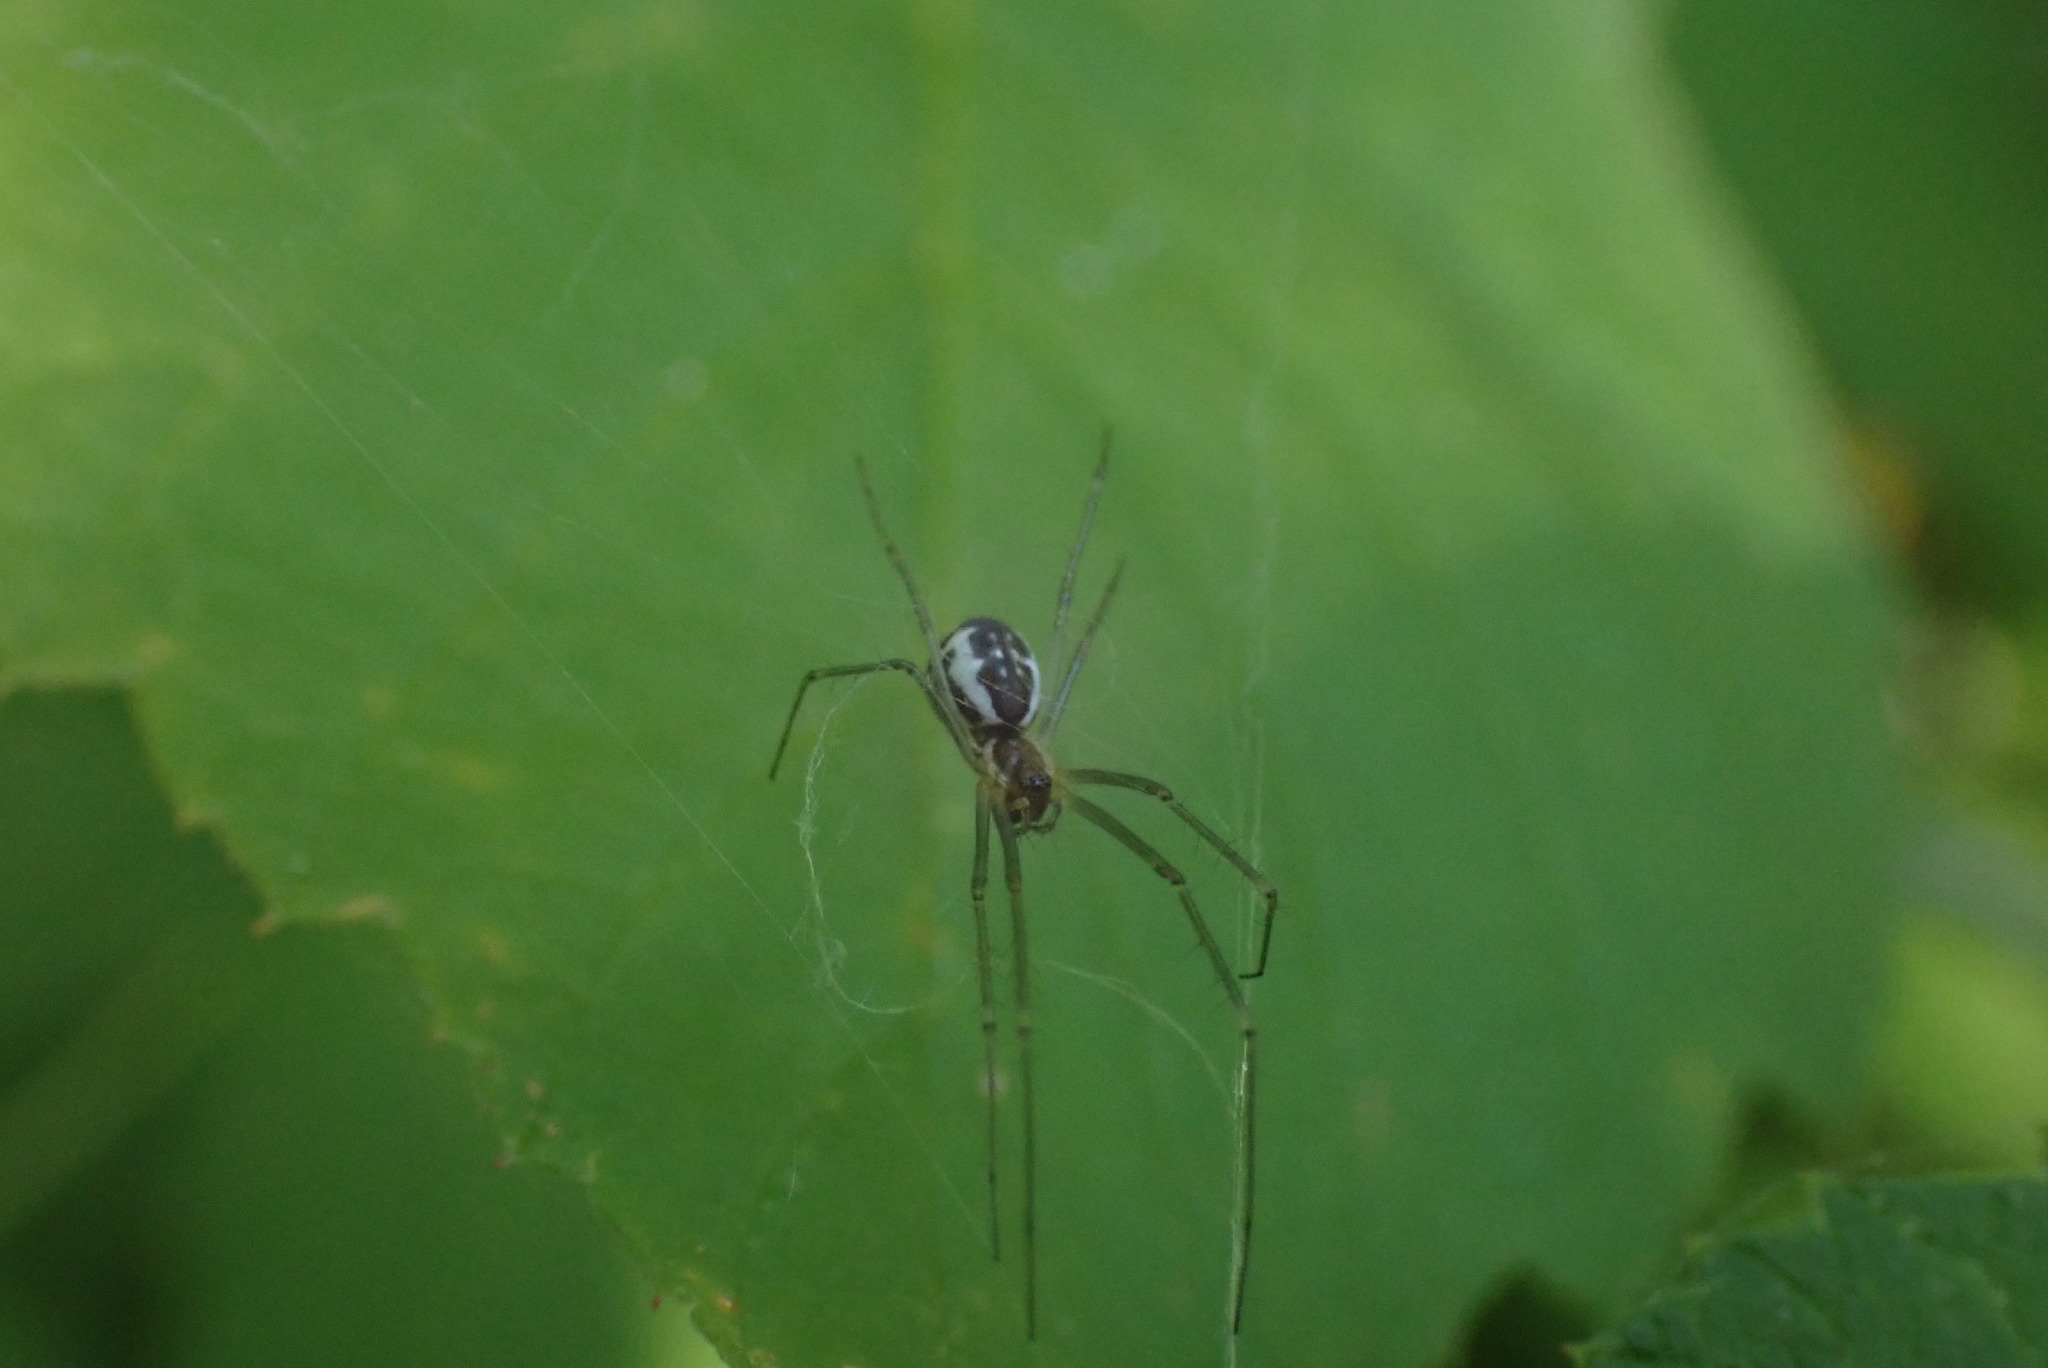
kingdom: Animalia
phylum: Arthropoda
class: Arachnida
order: Araneae
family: Linyphiidae
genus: Neriene
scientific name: Neriene radiata
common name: Filmy dome spider
